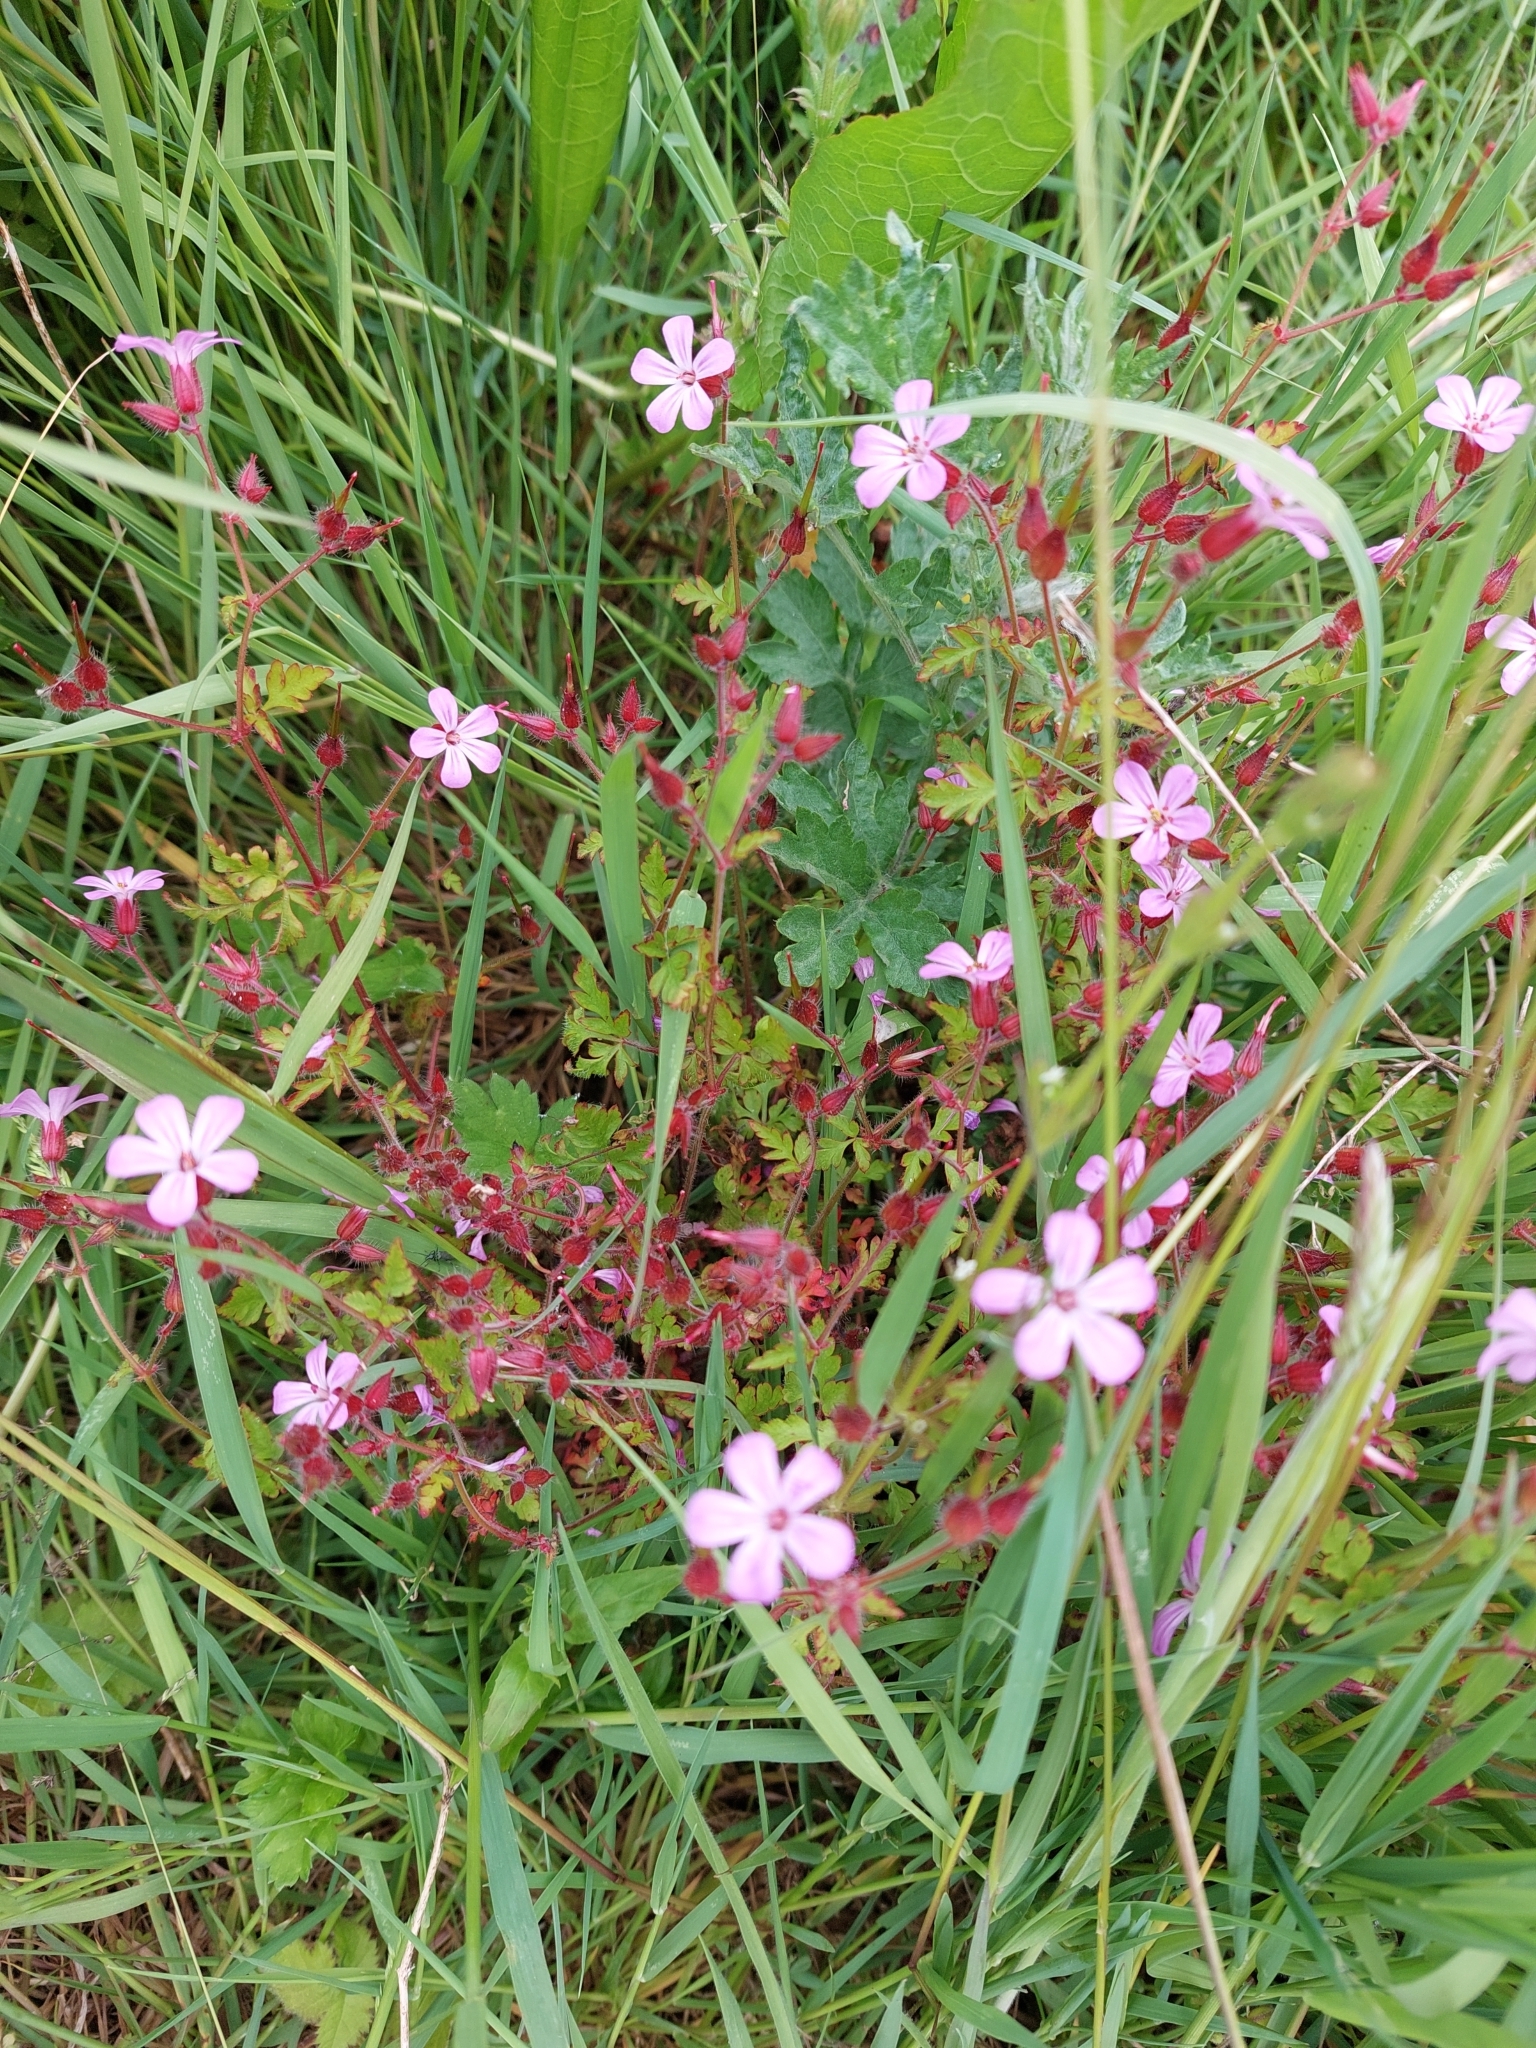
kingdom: Plantae
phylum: Tracheophyta
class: Magnoliopsida
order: Geraniales
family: Geraniaceae
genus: Geranium
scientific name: Geranium robertianum
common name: Herb-robert
